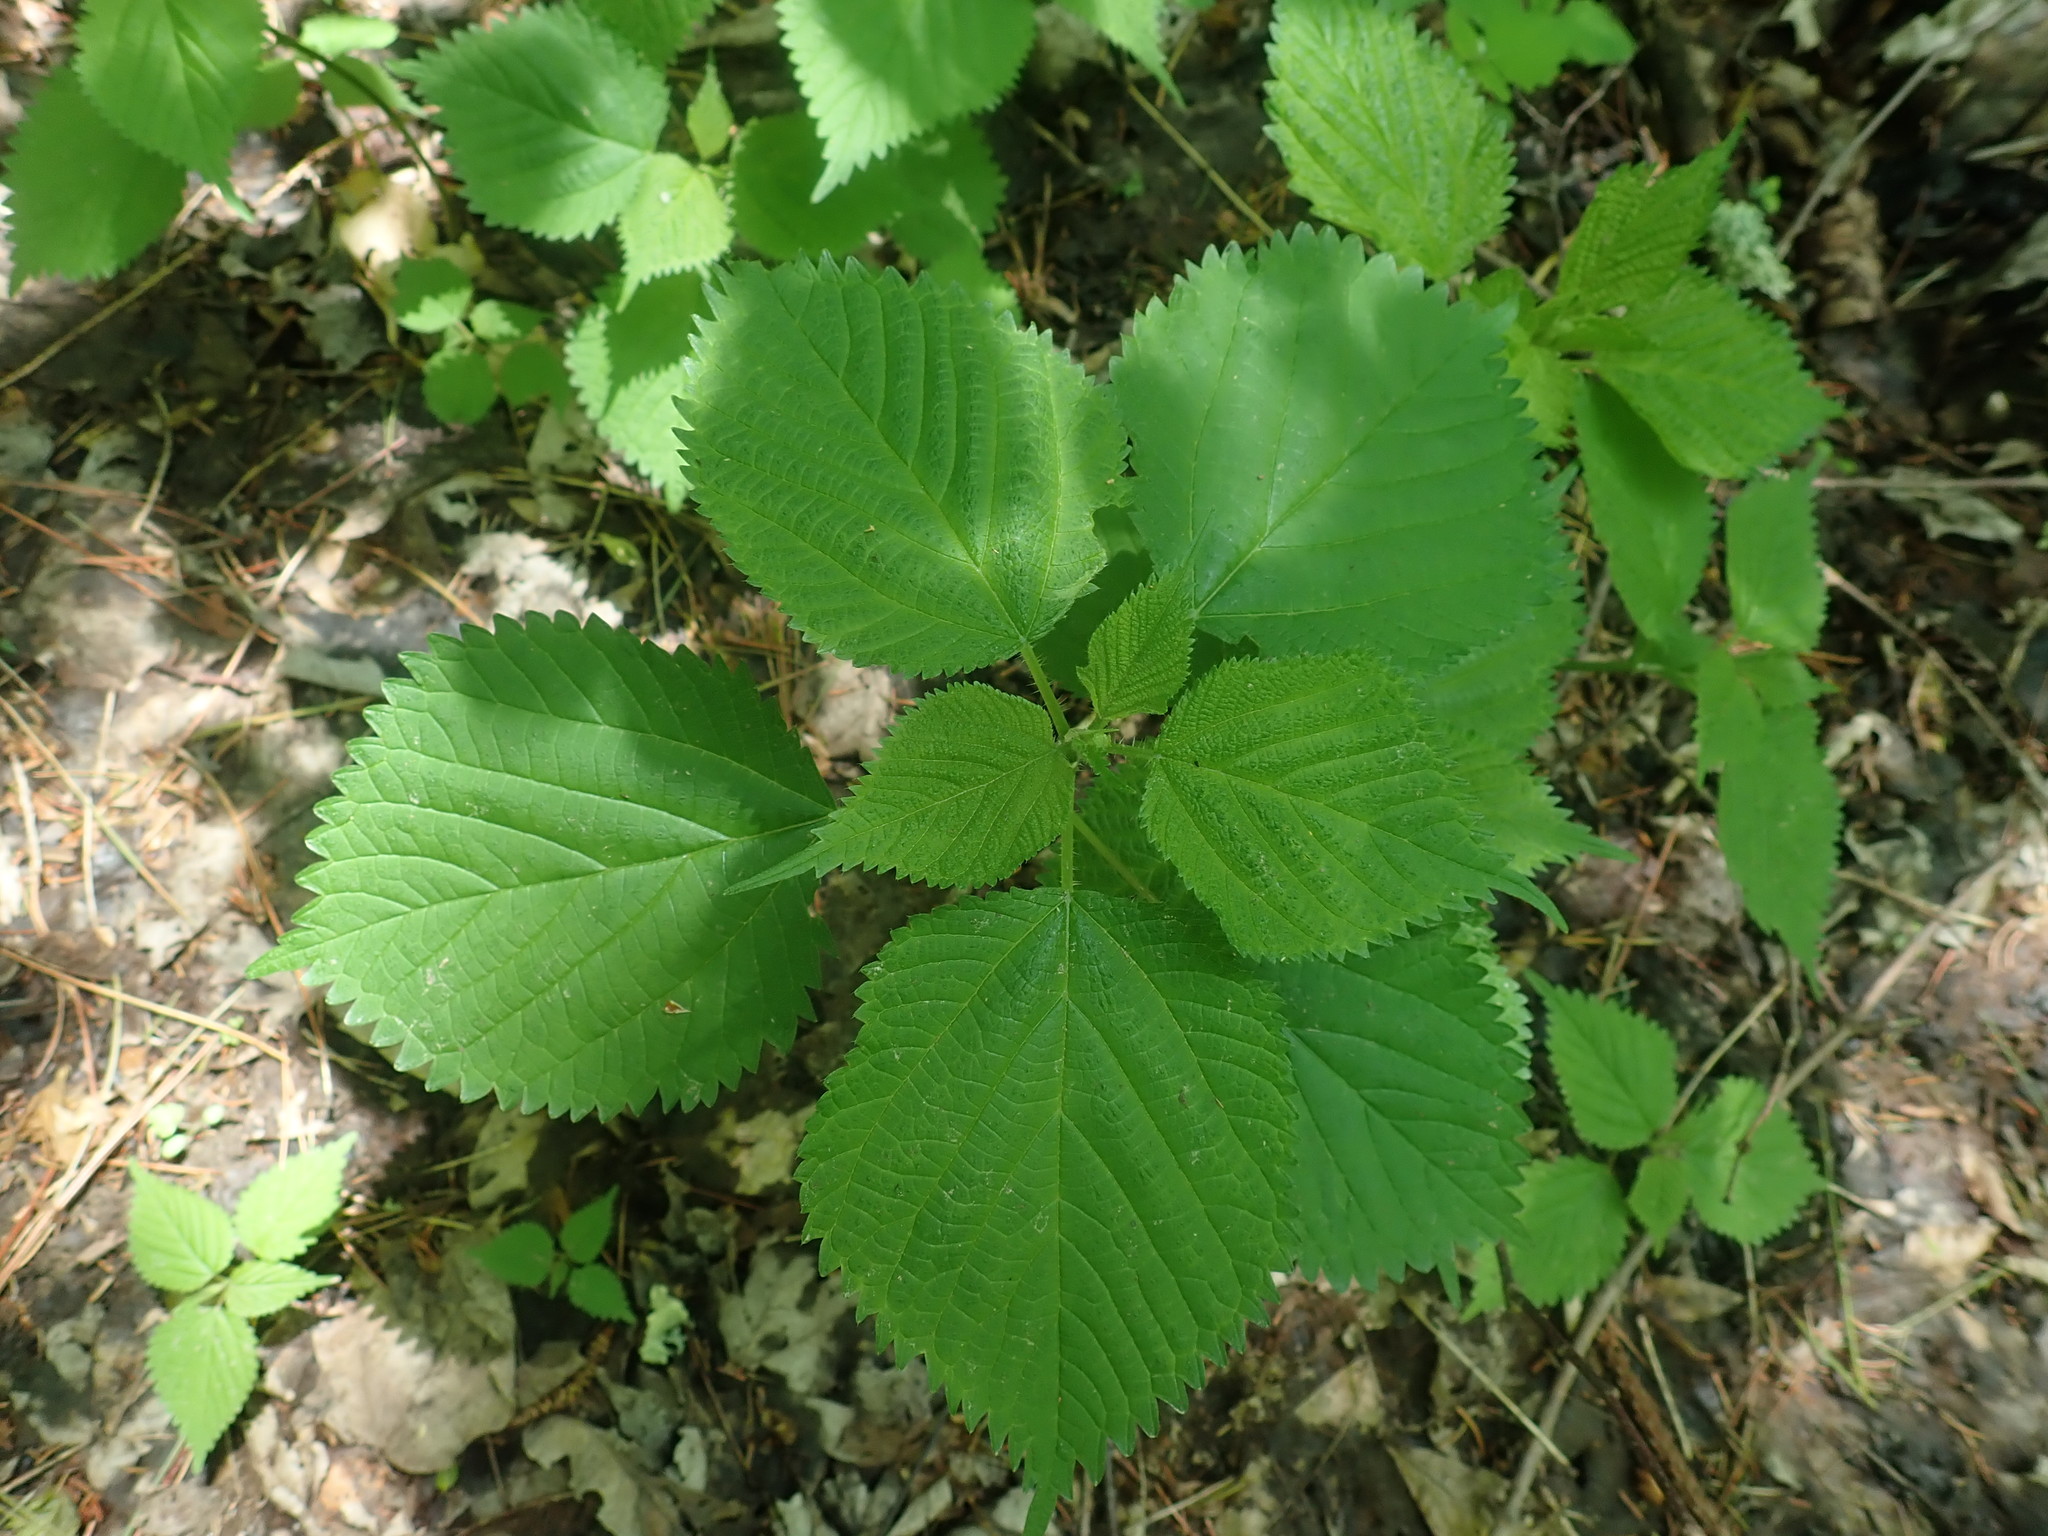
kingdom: Plantae
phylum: Tracheophyta
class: Magnoliopsida
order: Rosales
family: Urticaceae
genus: Laportea
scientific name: Laportea canadensis
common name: Canada nettle
